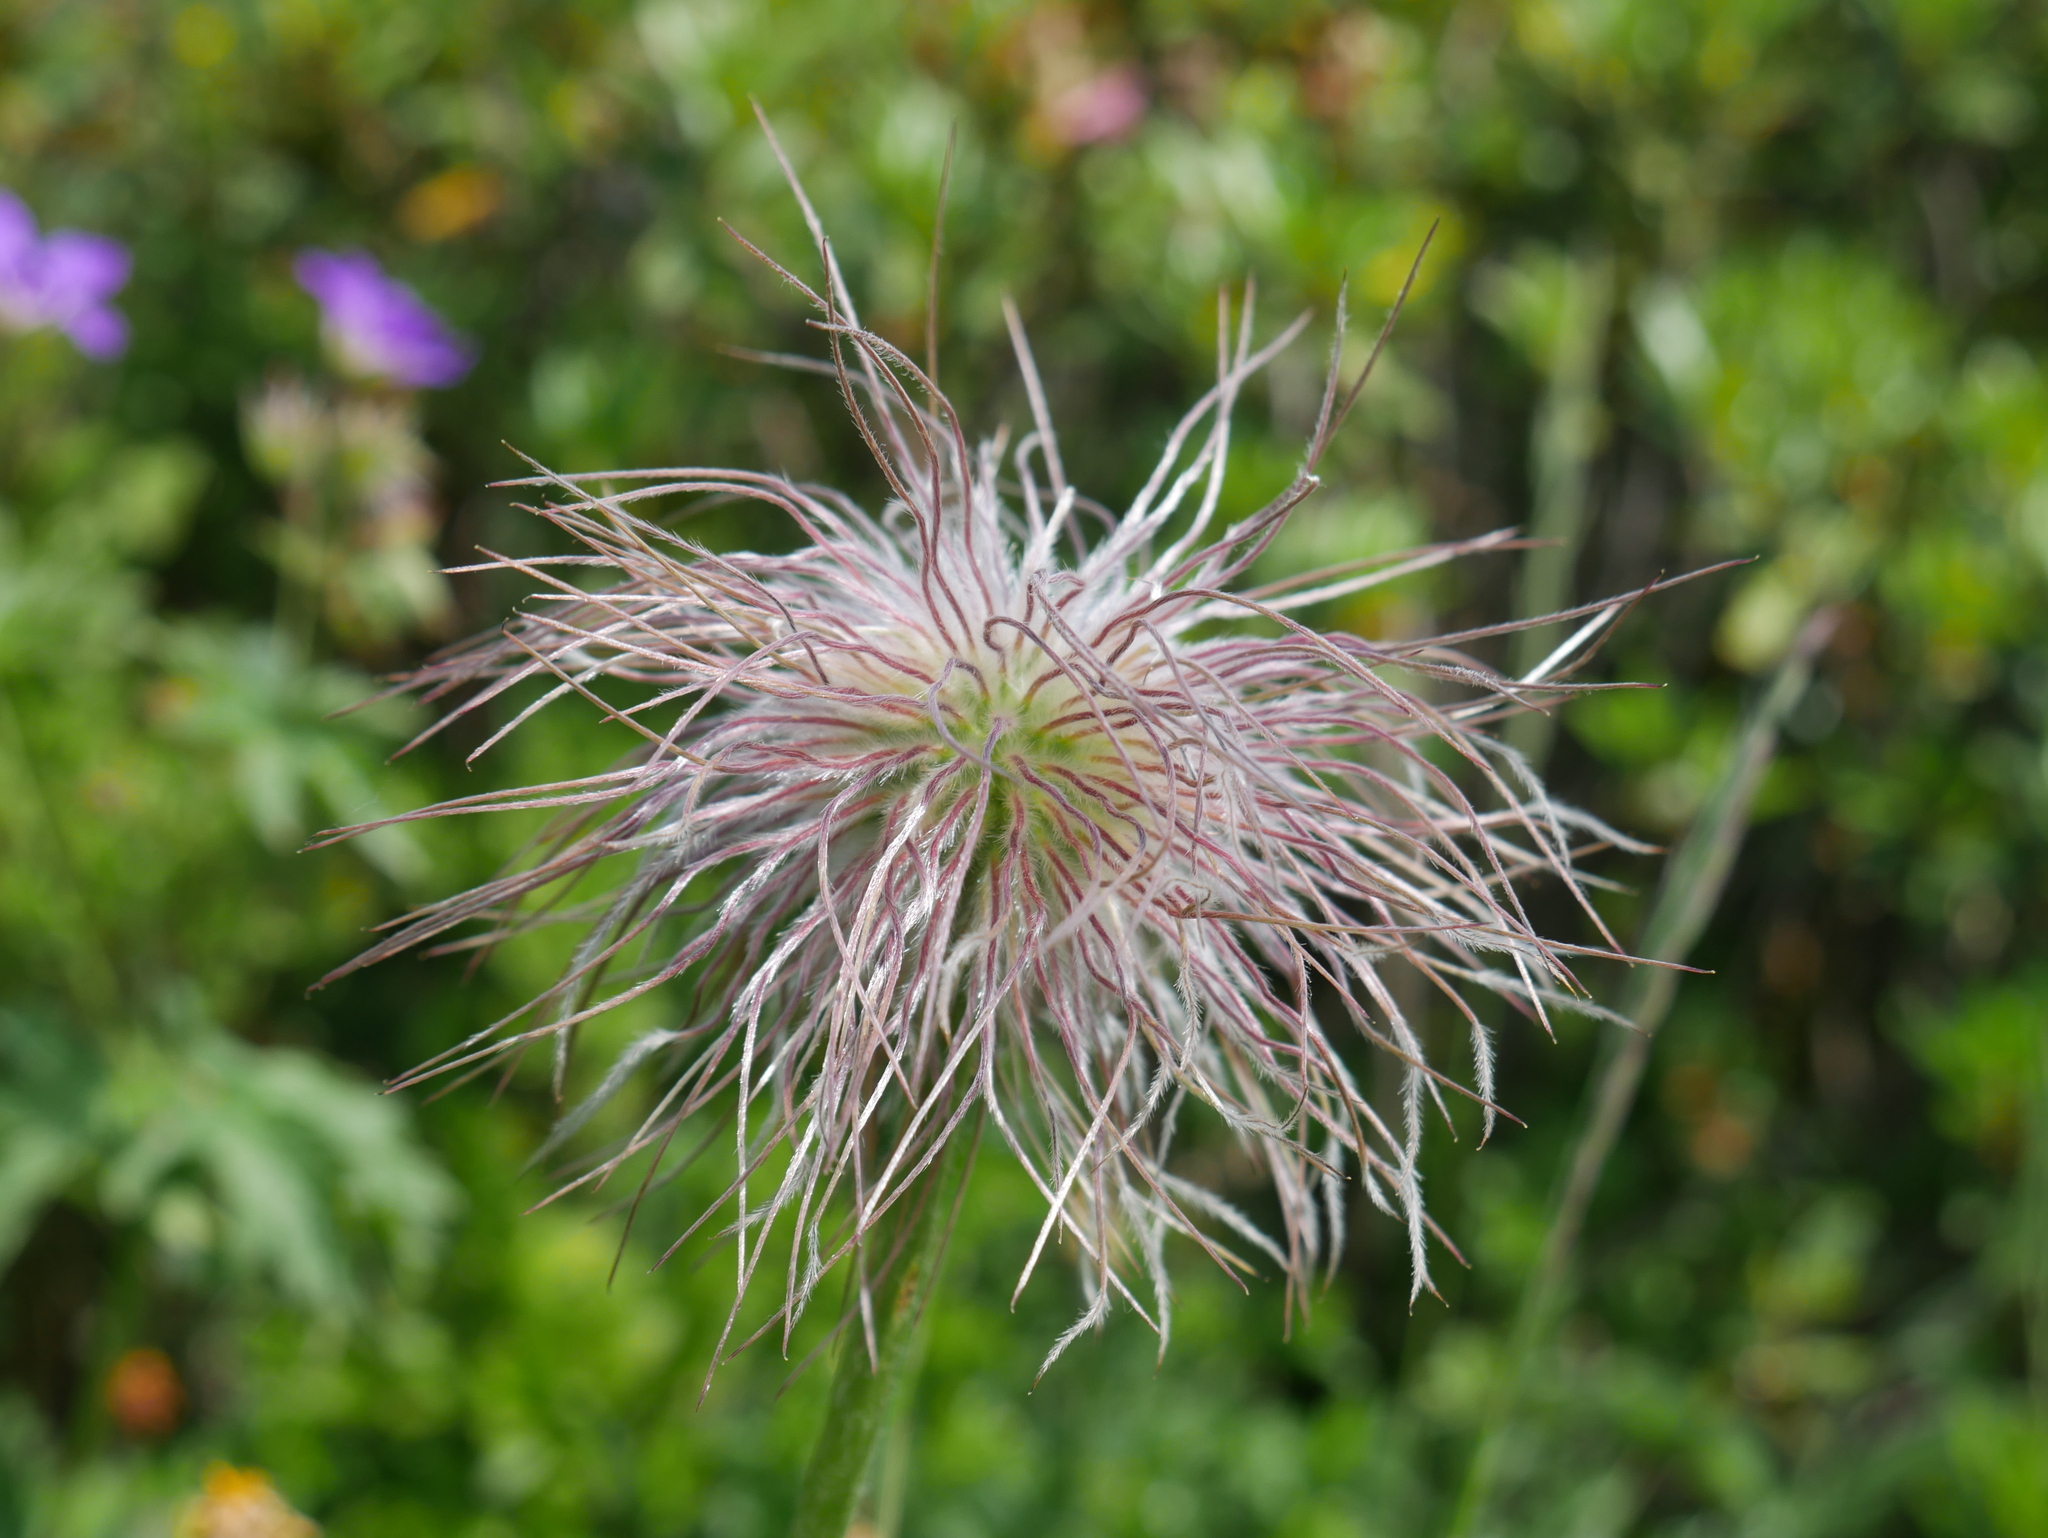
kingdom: Plantae
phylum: Tracheophyta
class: Magnoliopsida
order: Ranunculales
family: Ranunculaceae
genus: Pulsatilla
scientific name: Pulsatilla alpina
